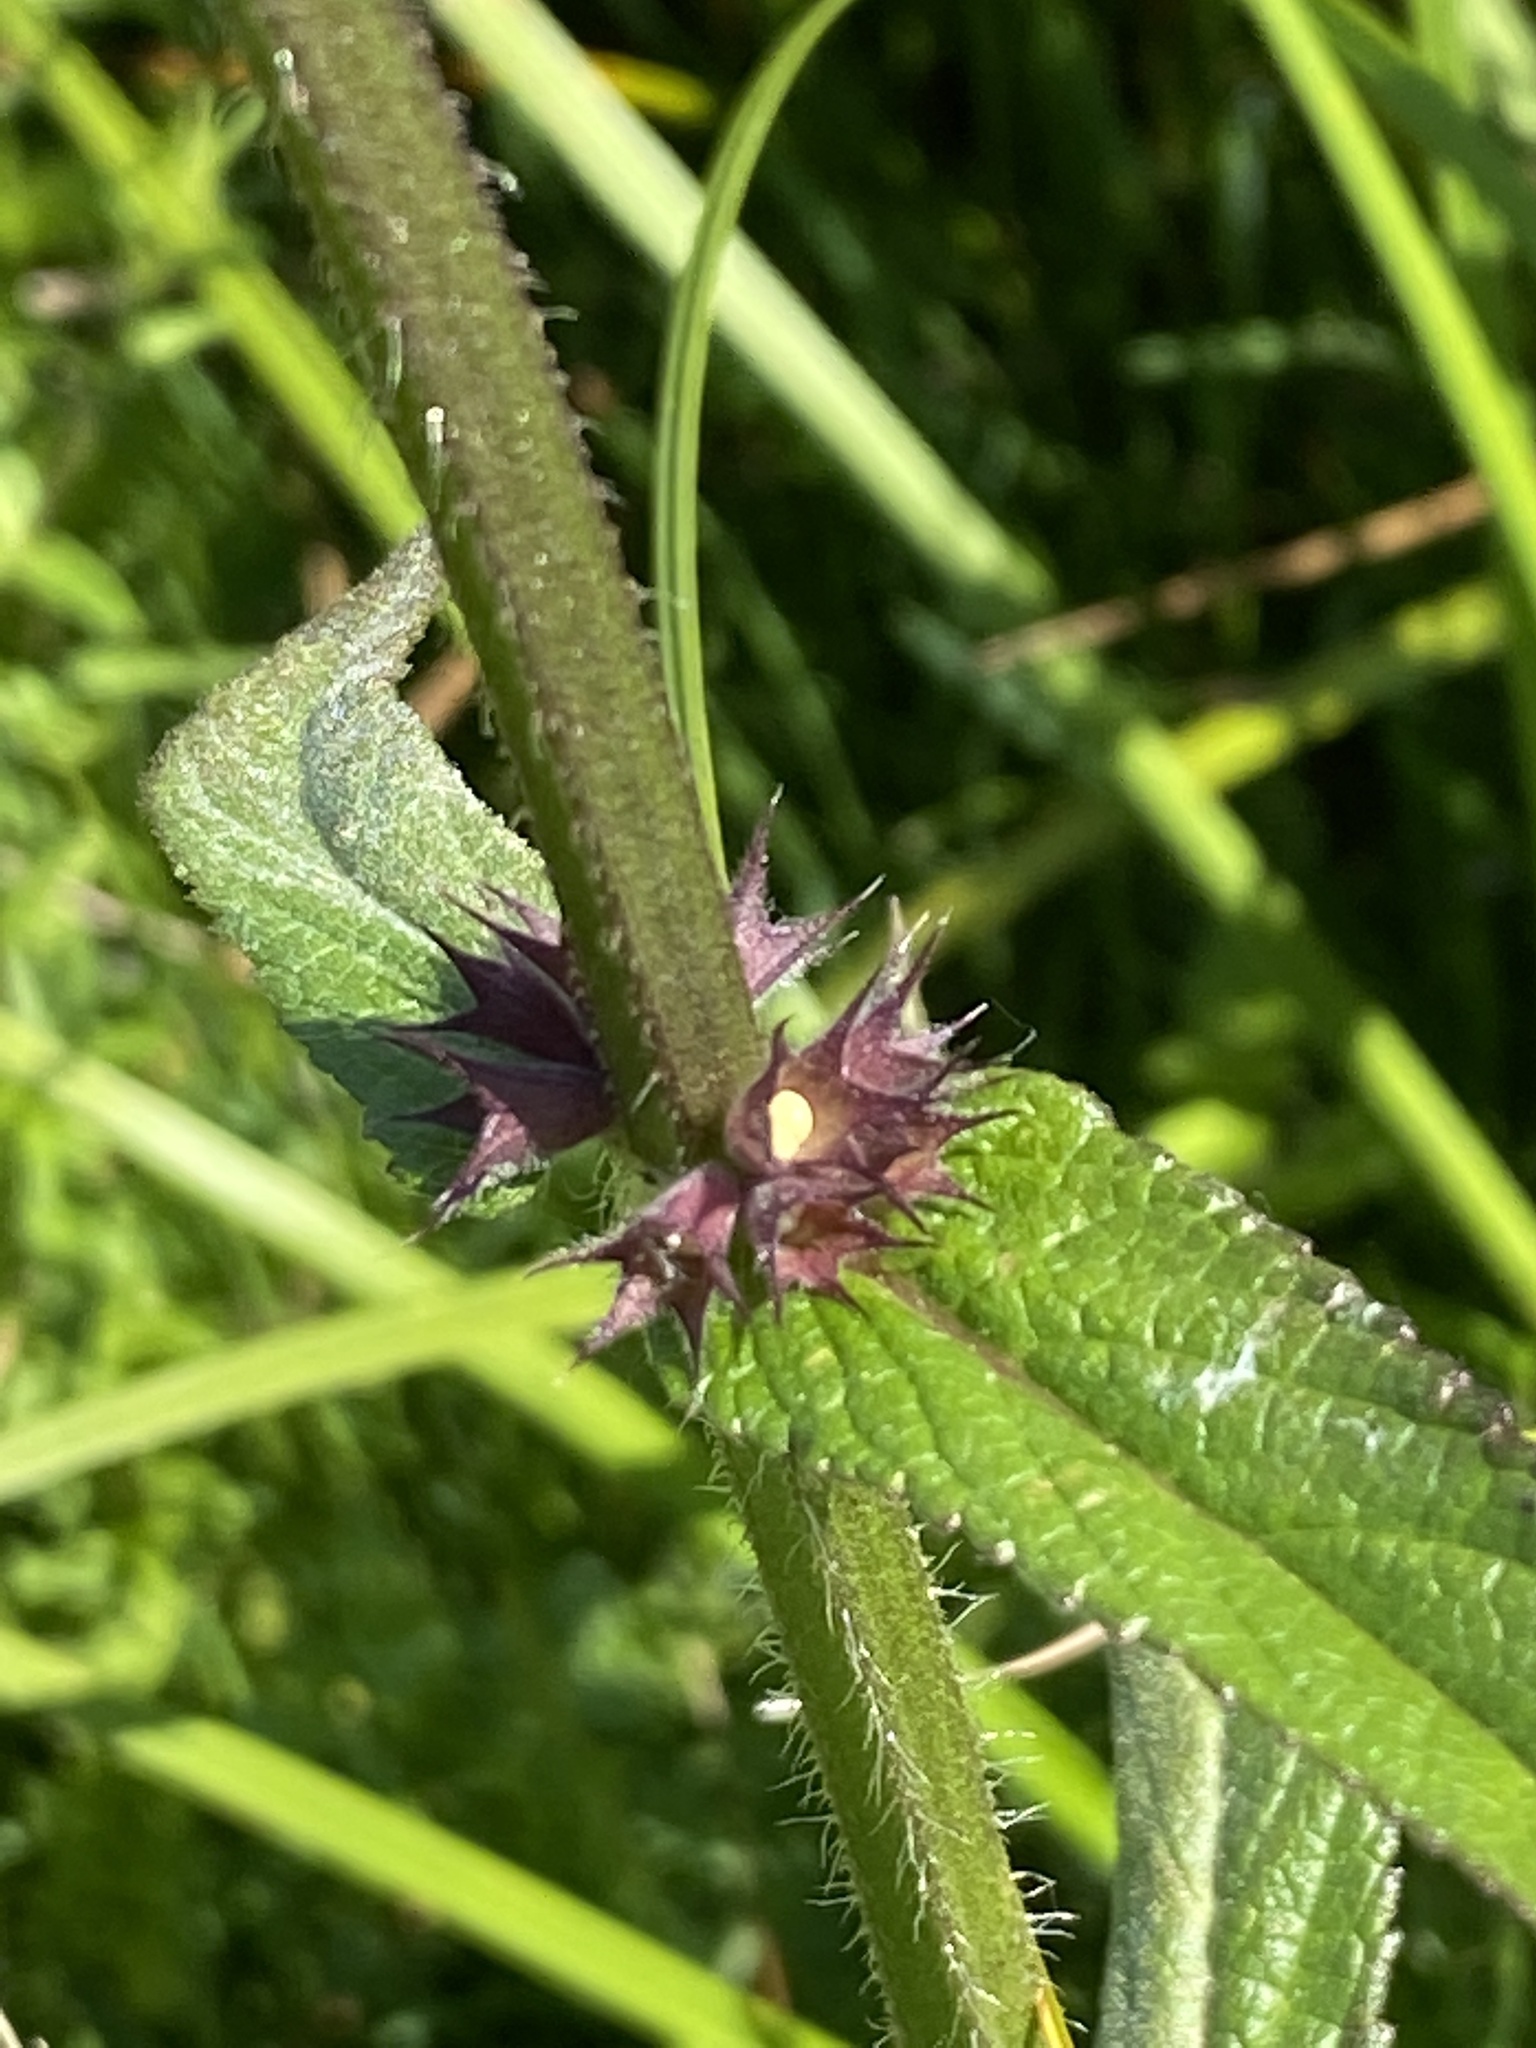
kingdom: Plantae
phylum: Tracheophyta
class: Magnoliopsida
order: Lamiales
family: Lamiaceae
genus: Stachys
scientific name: Stachys palustris
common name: Marsh woundwort
